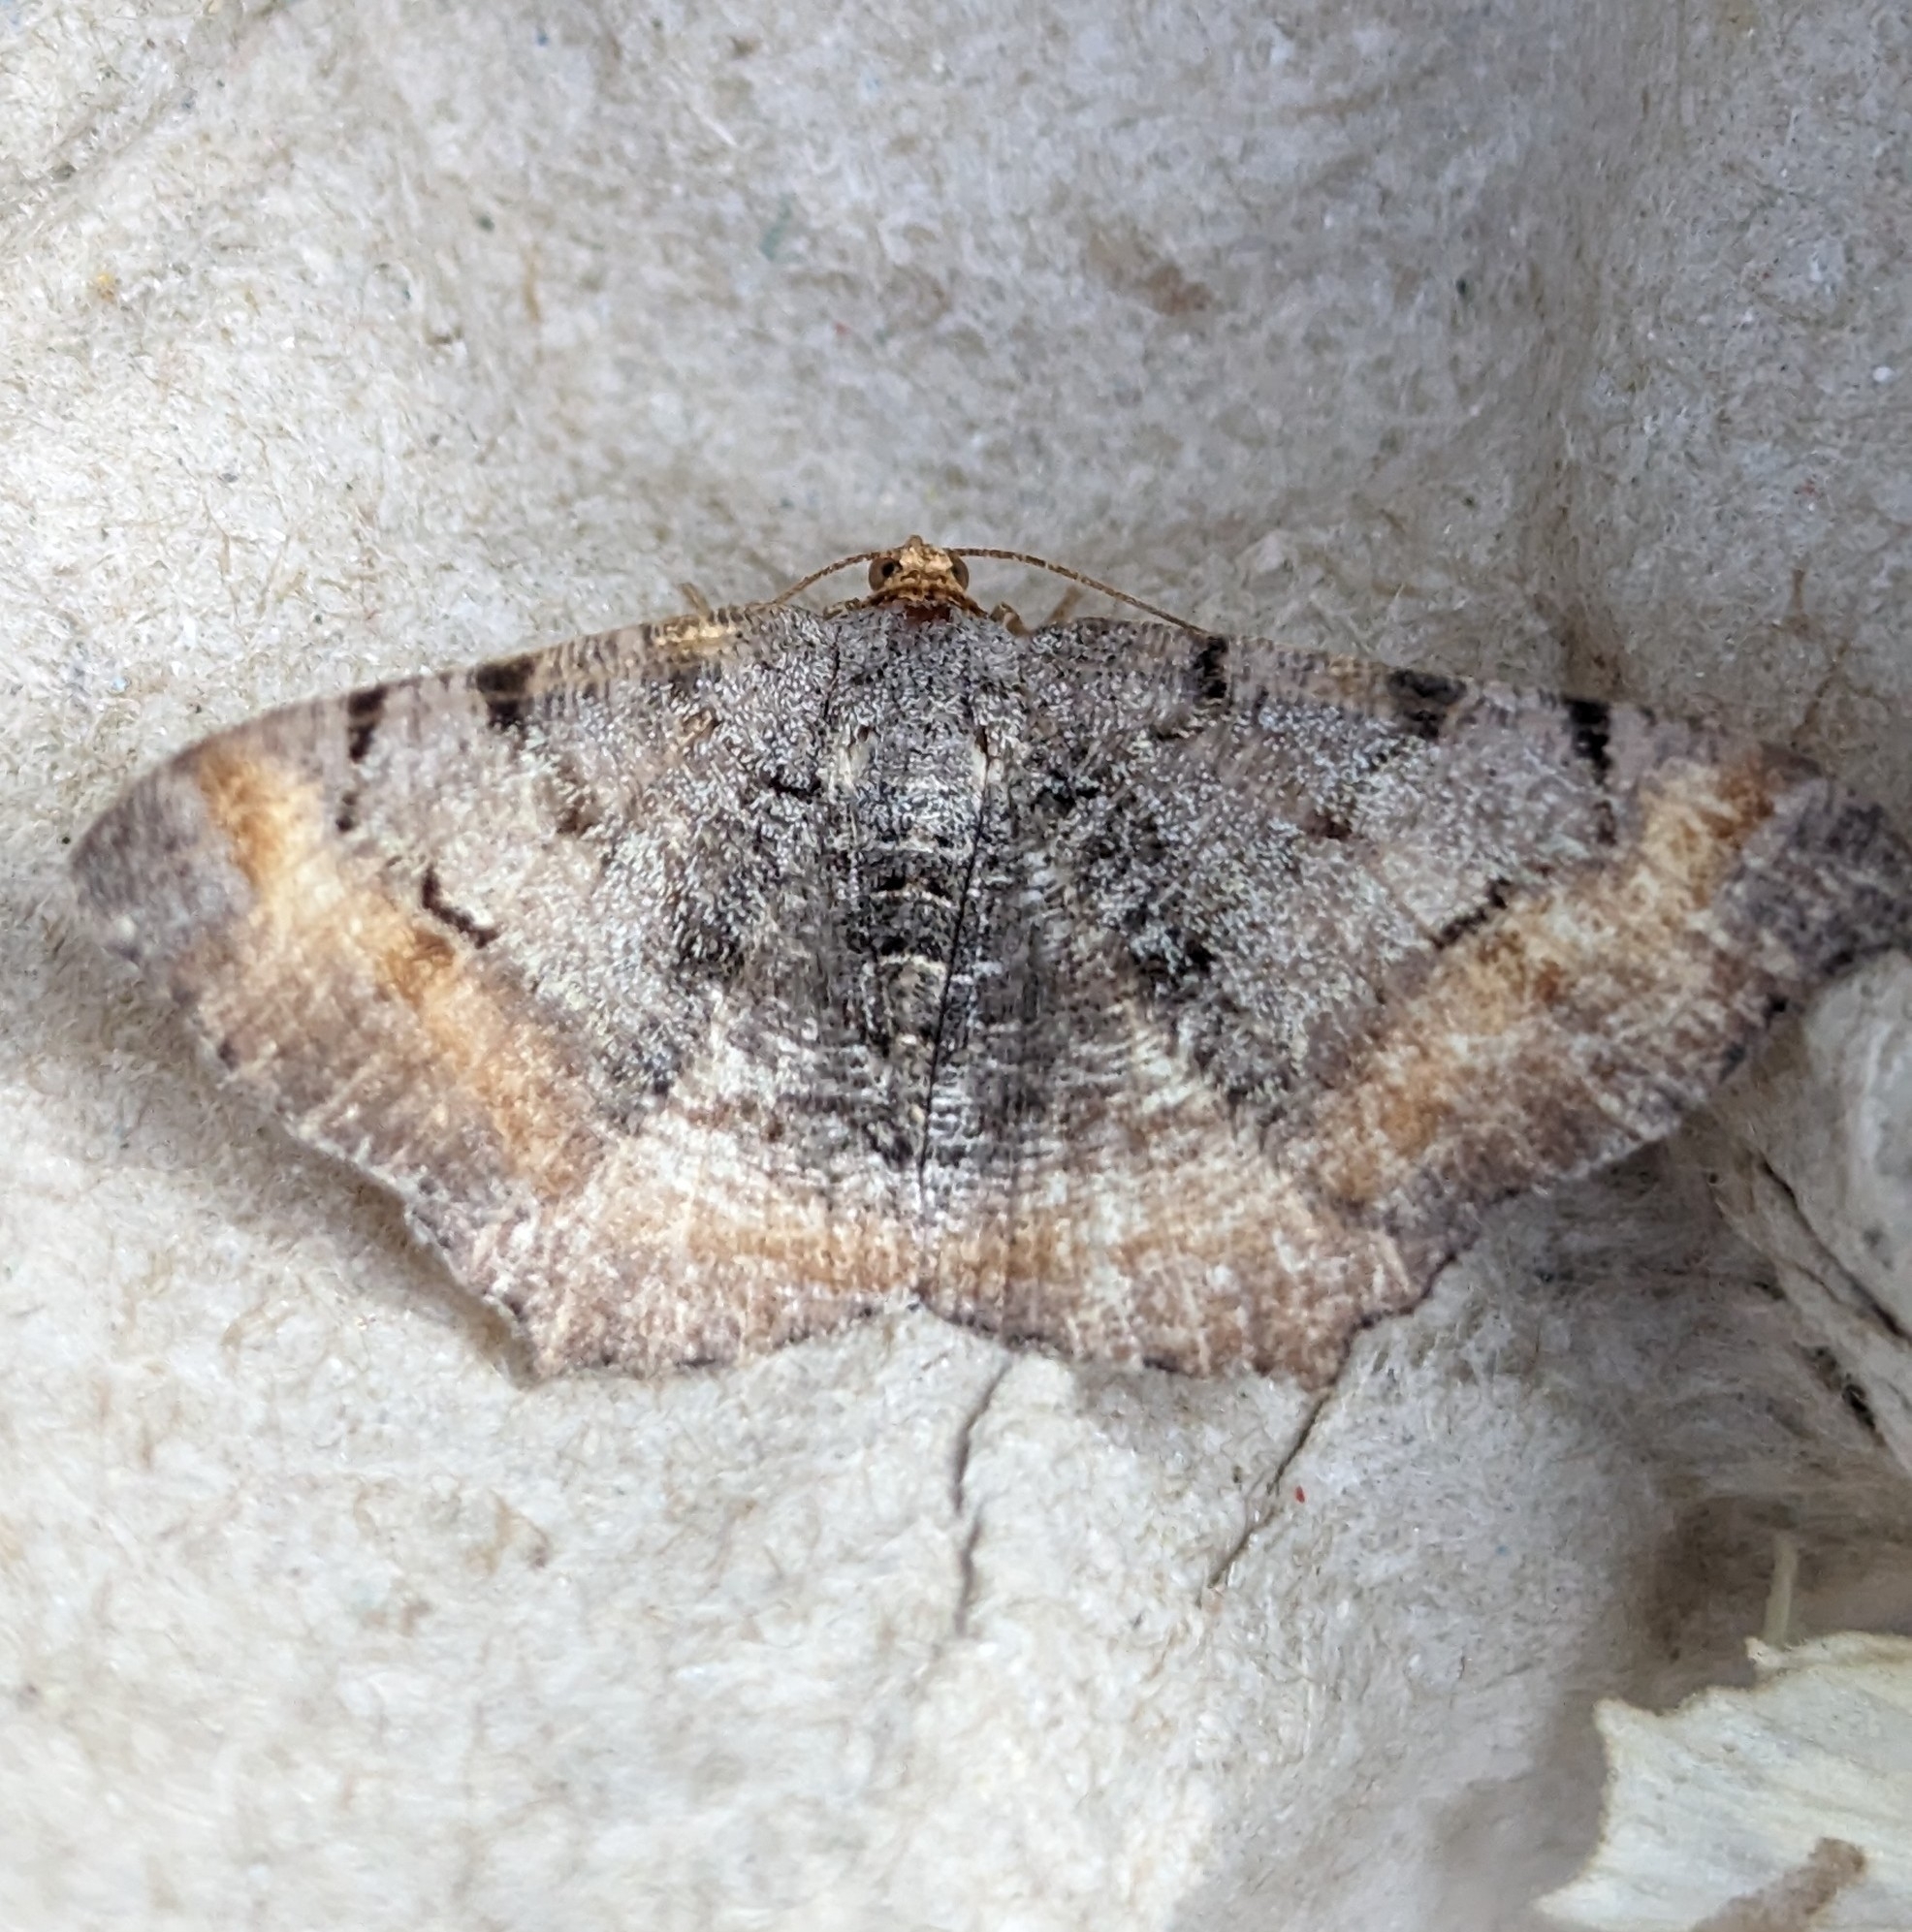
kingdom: Animalia
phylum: Arthropoda
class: Insecta
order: Lepidoptera
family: Geometridae
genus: Macaria
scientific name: Macaria adonis
